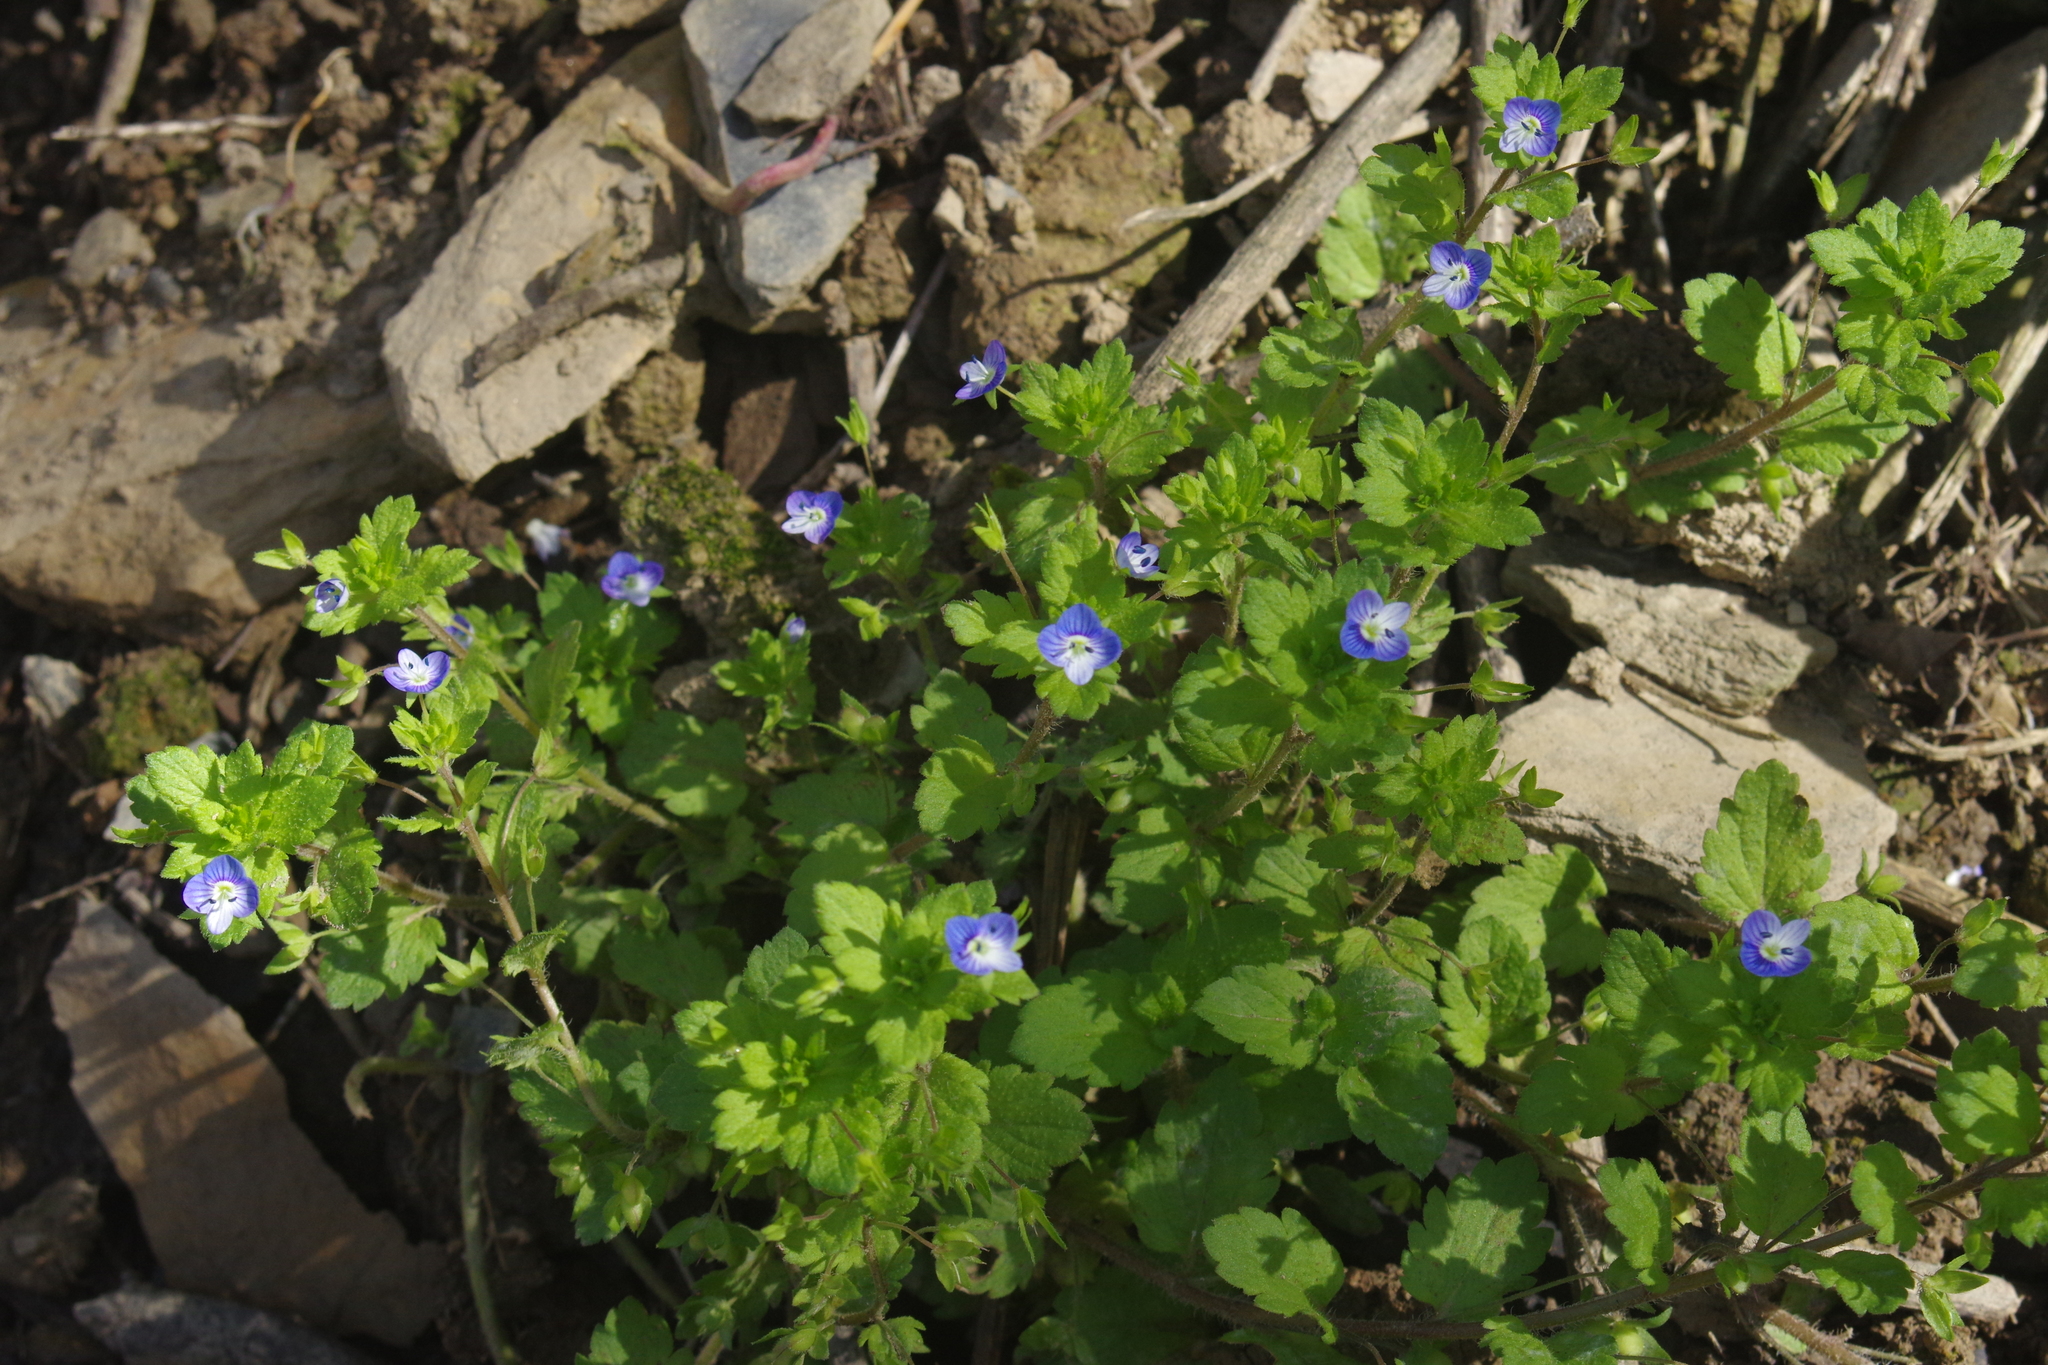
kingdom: Plantae
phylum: Tracheophyta
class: Magnoliopsida
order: Lamiales
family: Plantaginaceae
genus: Veronica
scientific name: Veronica persica
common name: Common field-speedwell
